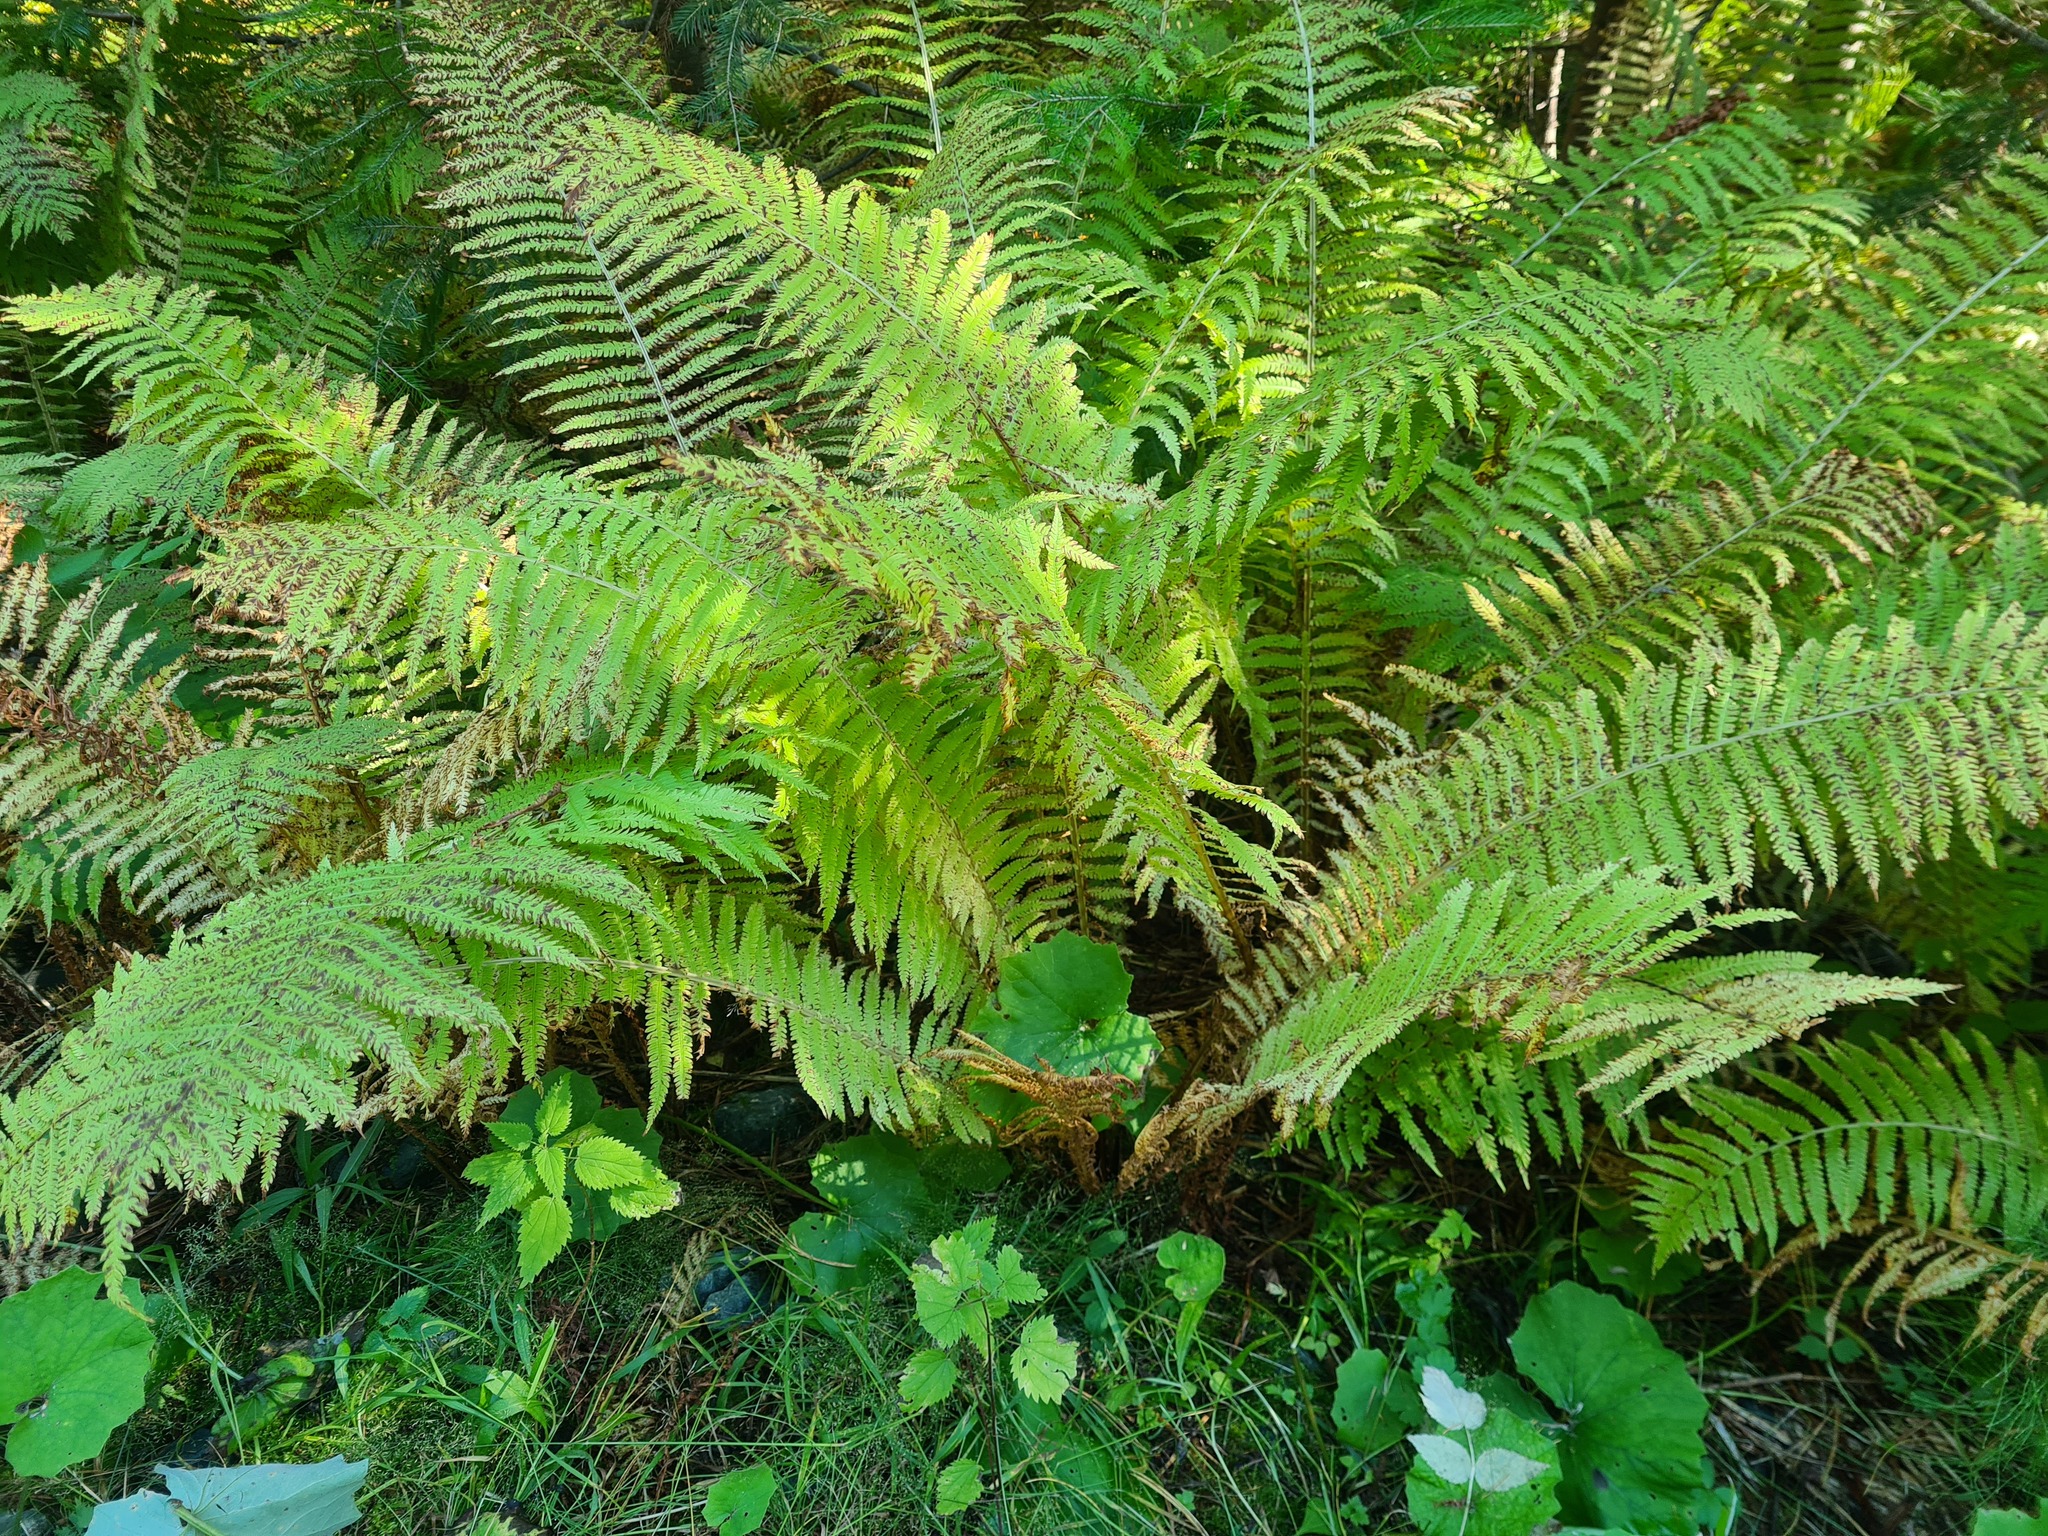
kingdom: Plantae
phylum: Tracheophyta
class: Polypodiopsida
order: Polypodiales
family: Onocleaceae
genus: Matteuccia
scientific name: Matteuccia struthiopteris
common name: Ostrich fern
